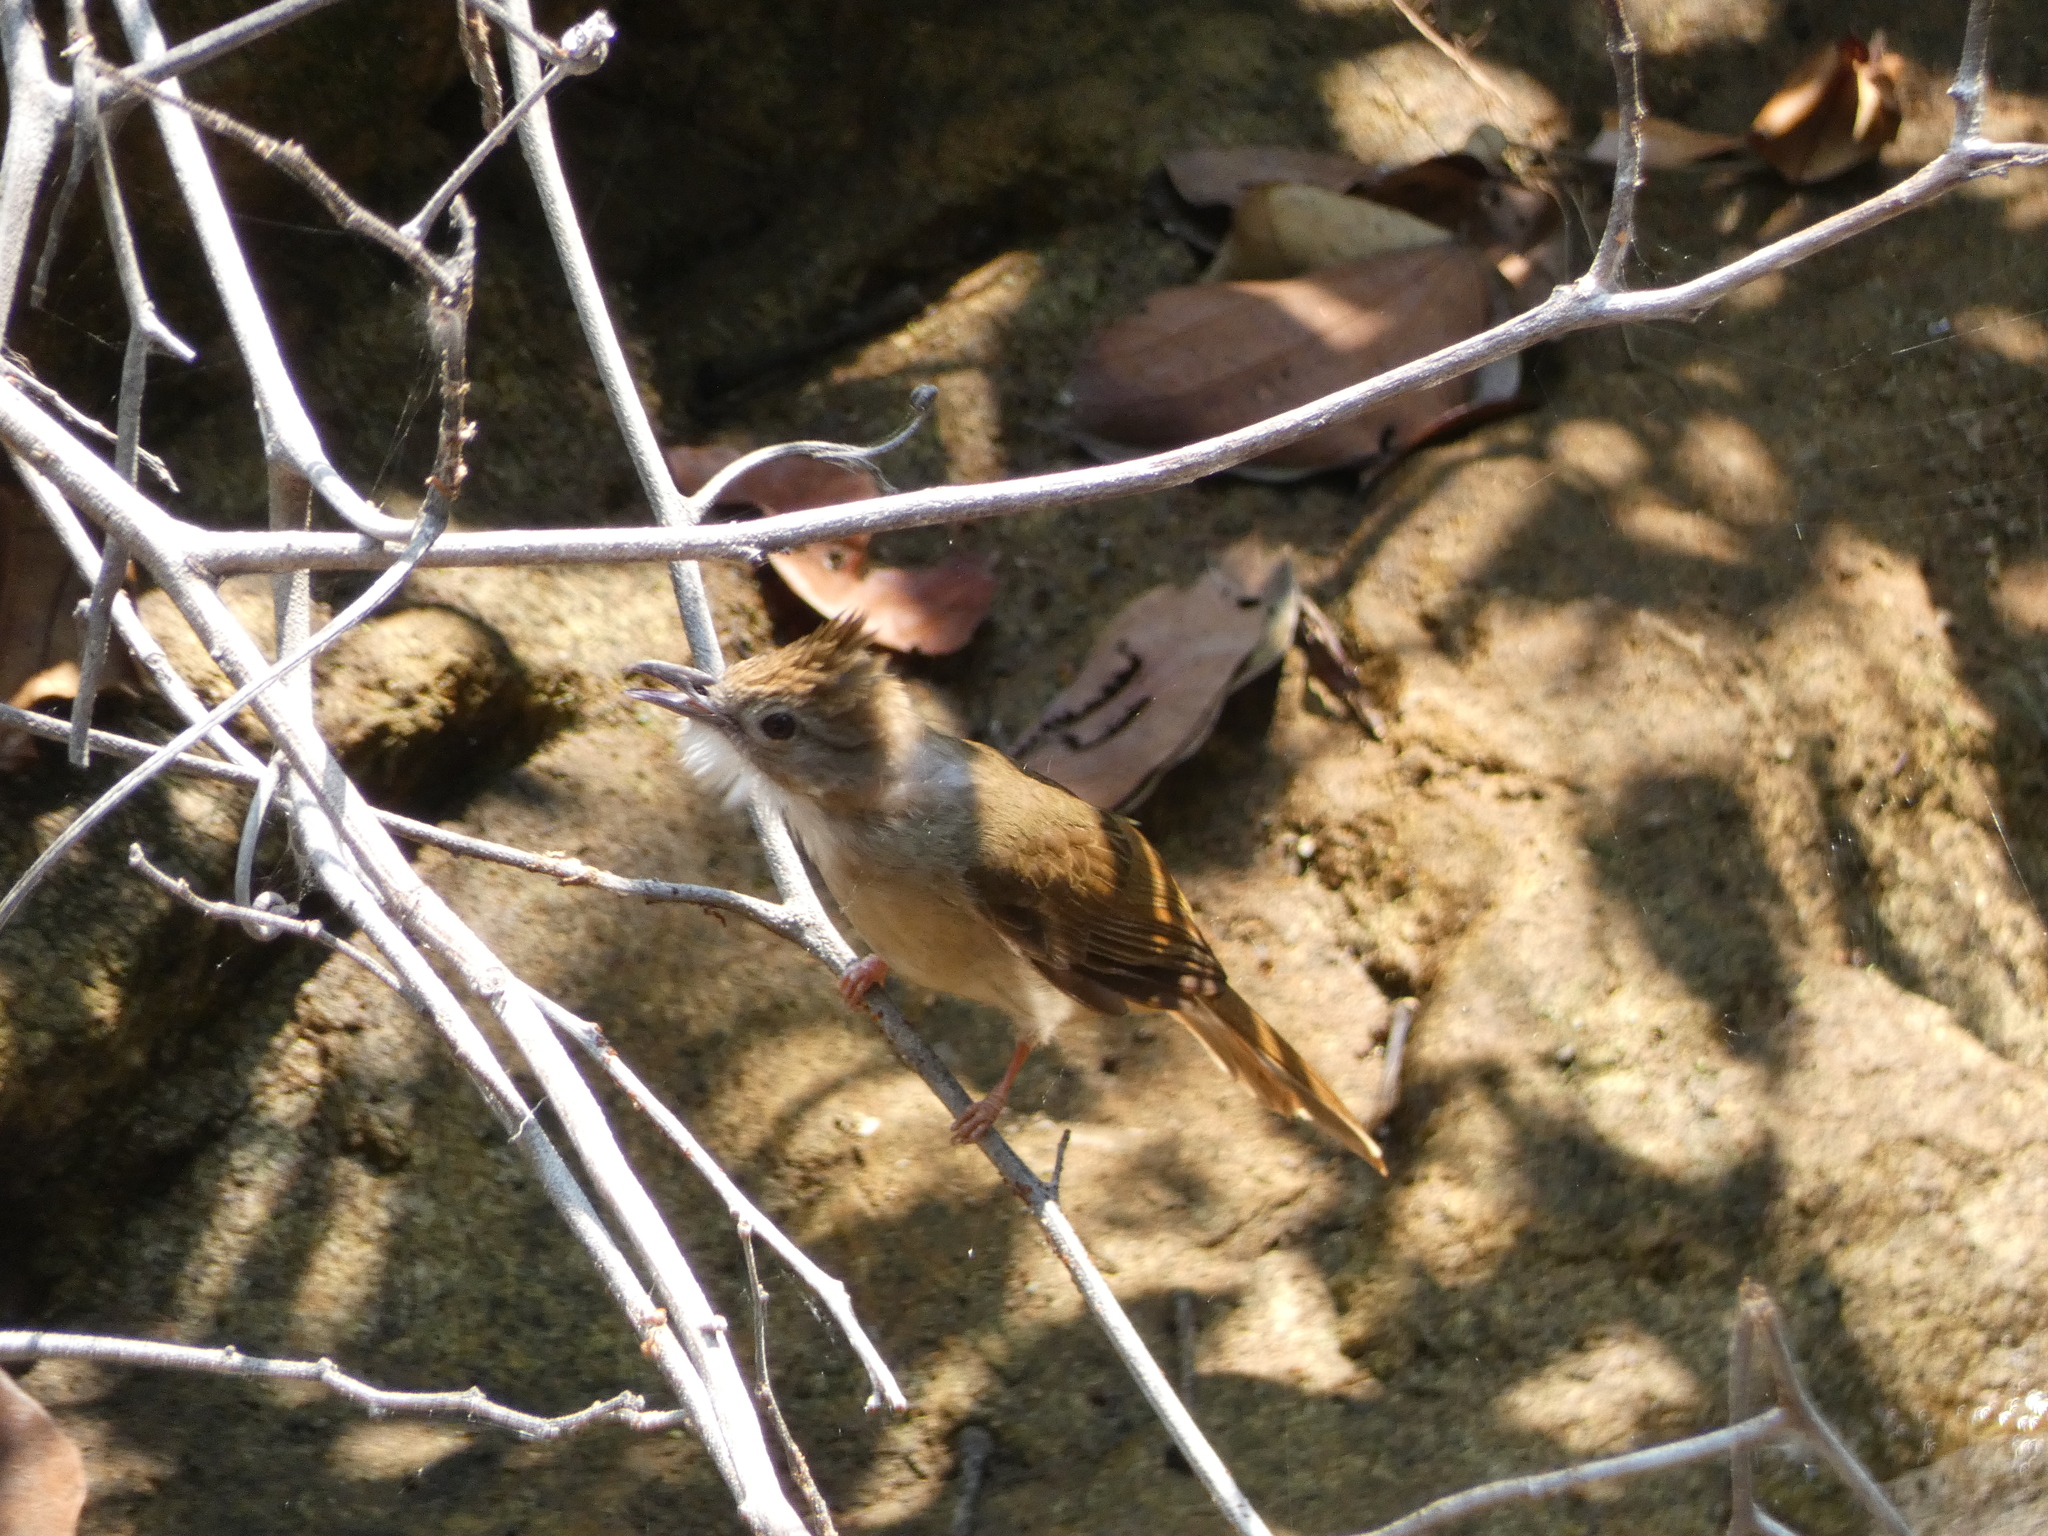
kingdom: Animalia
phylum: Chordata
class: Aves
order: Passeriformes
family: Pycnonotidae
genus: Alophoixus
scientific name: Alophoixus ochraceus
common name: Ochraceous bulbul
